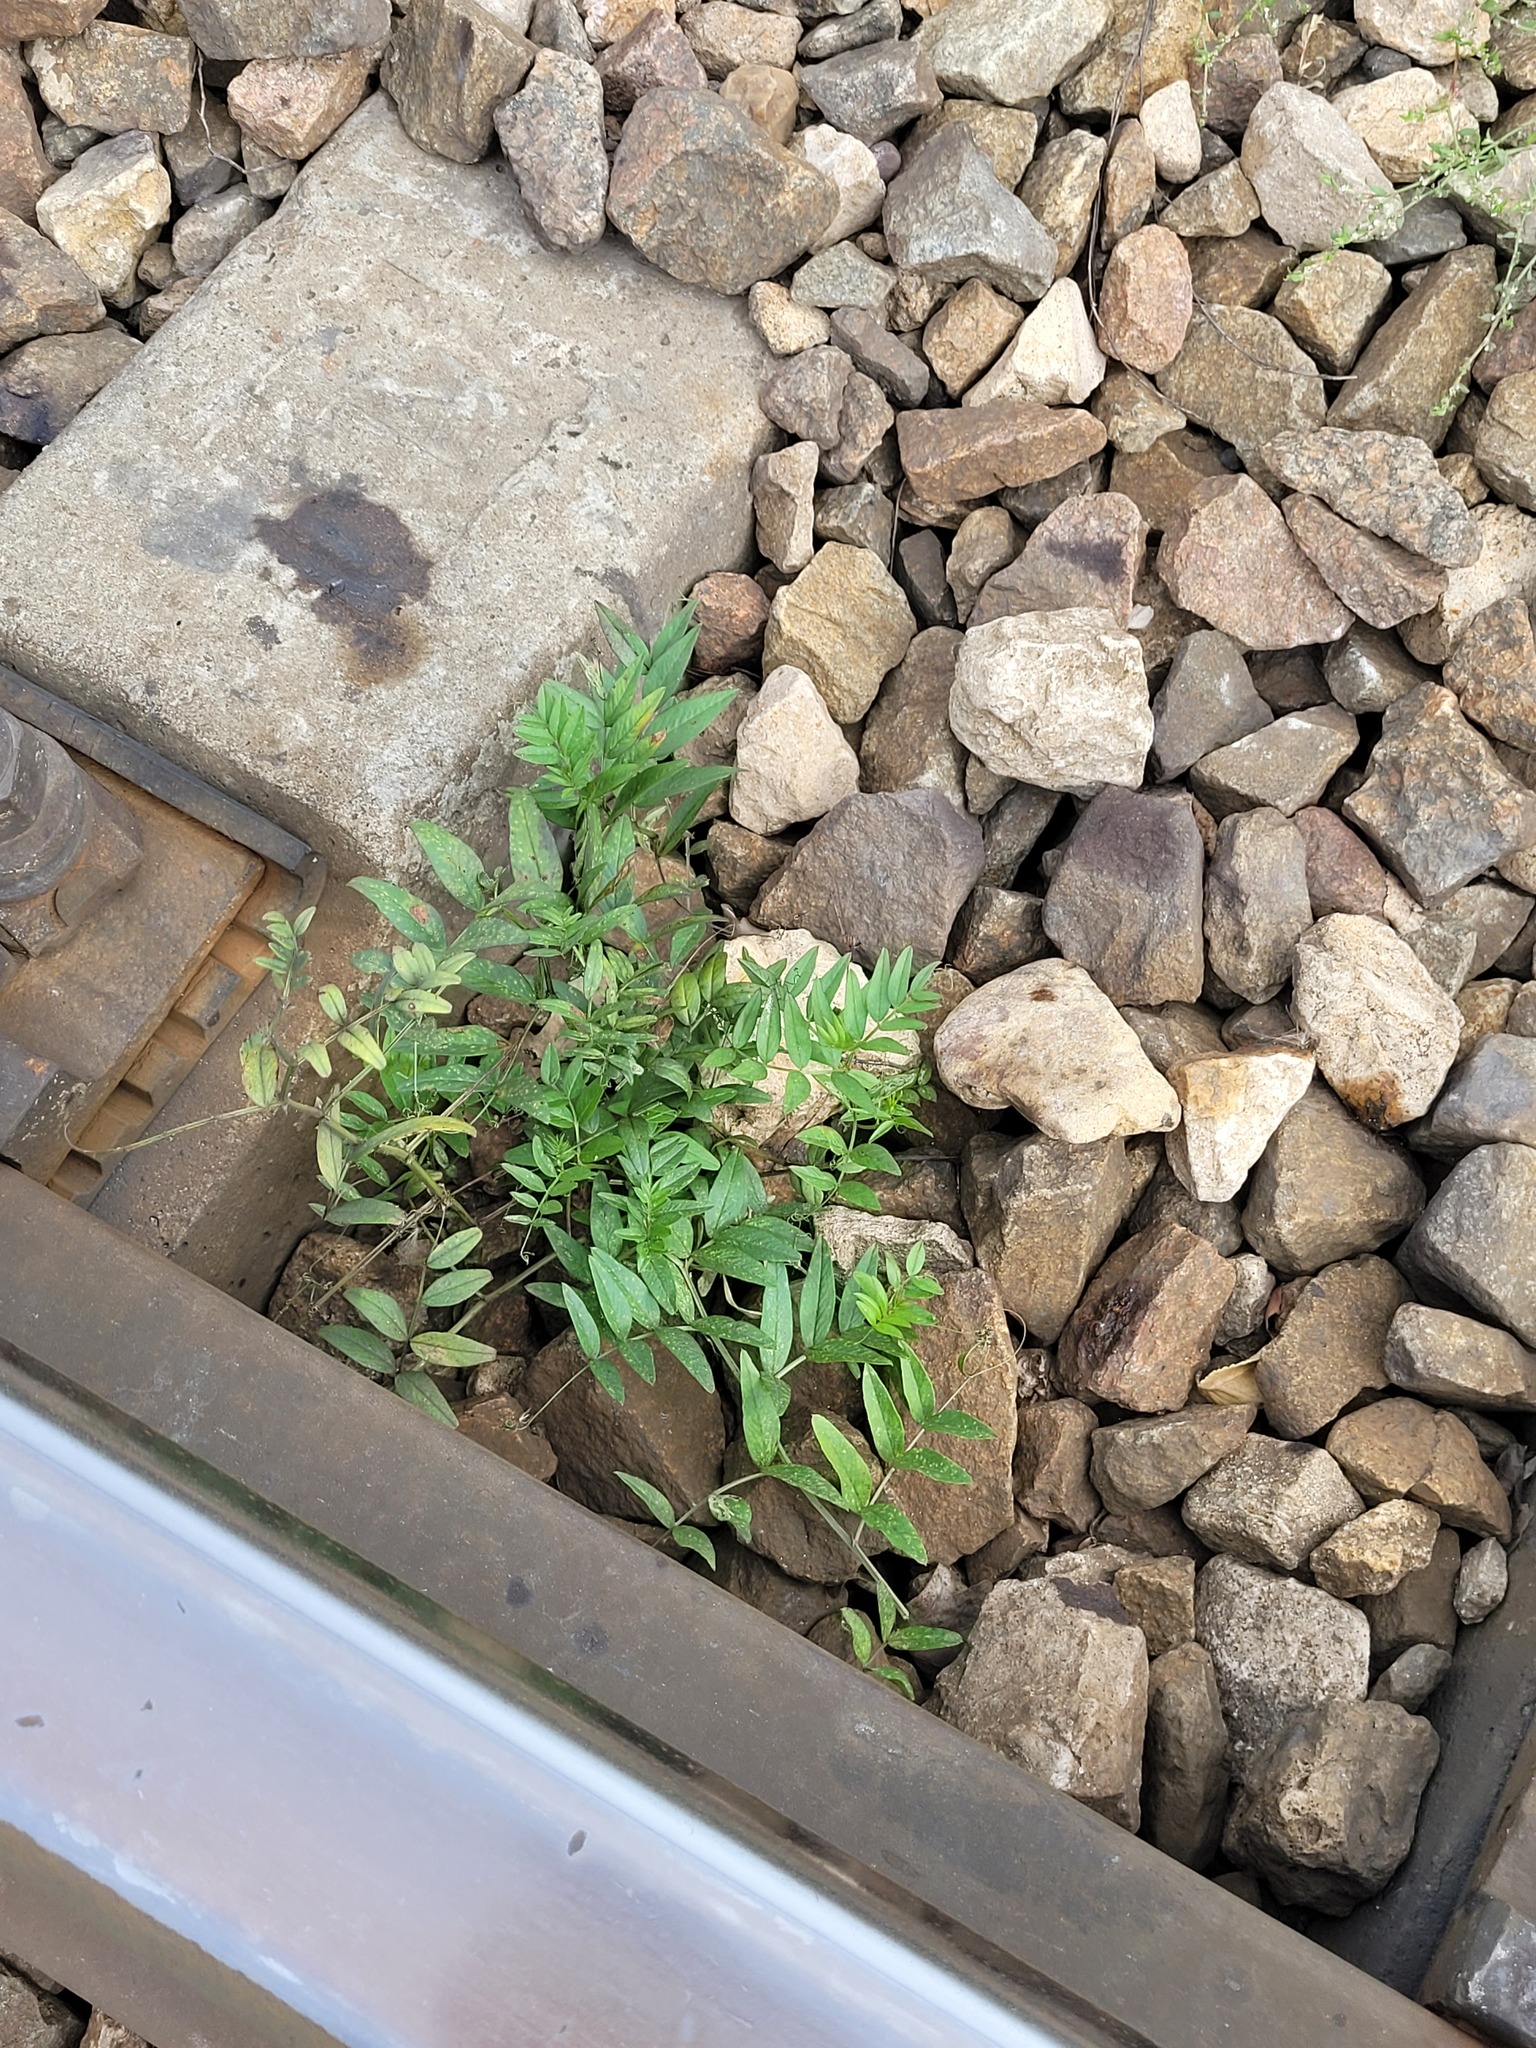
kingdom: Plantae
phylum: Tracheophyta
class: Magnoliopsida
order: Fabales
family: Fabaceae
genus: Vicia
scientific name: Vicia sepium
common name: Bush vetch
